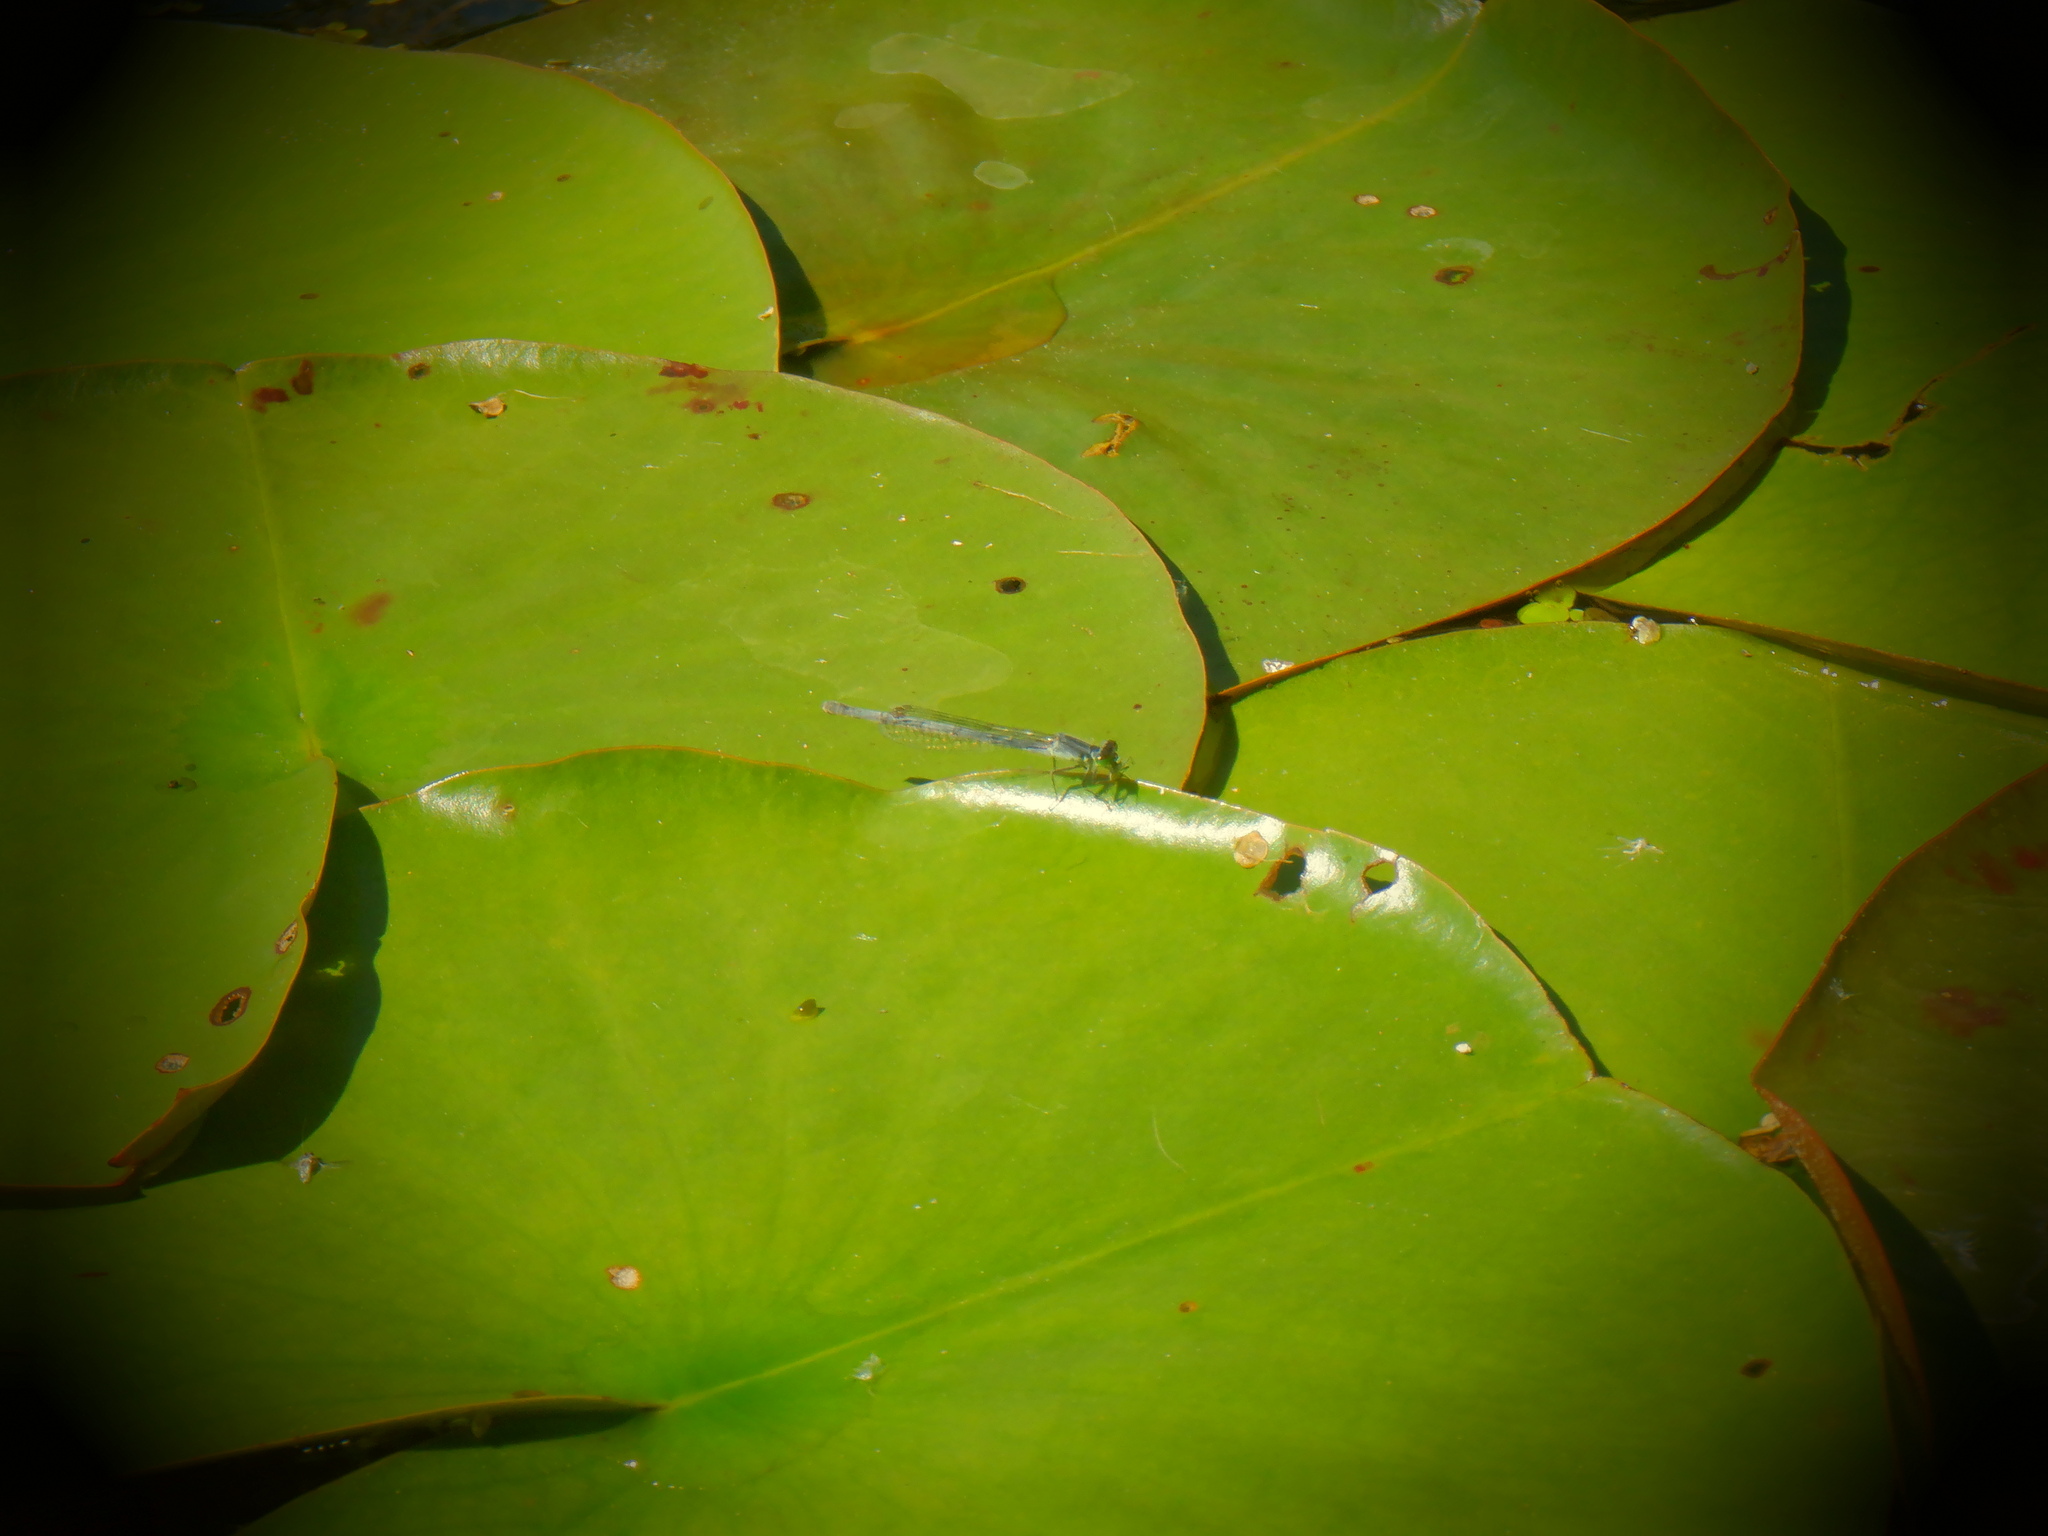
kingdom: Animalia
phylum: Arthropoda
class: Insecta
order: Odonata
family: Coenagrionidae
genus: Ischnura
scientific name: Ischnura verticalis
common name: Eastern forktail
